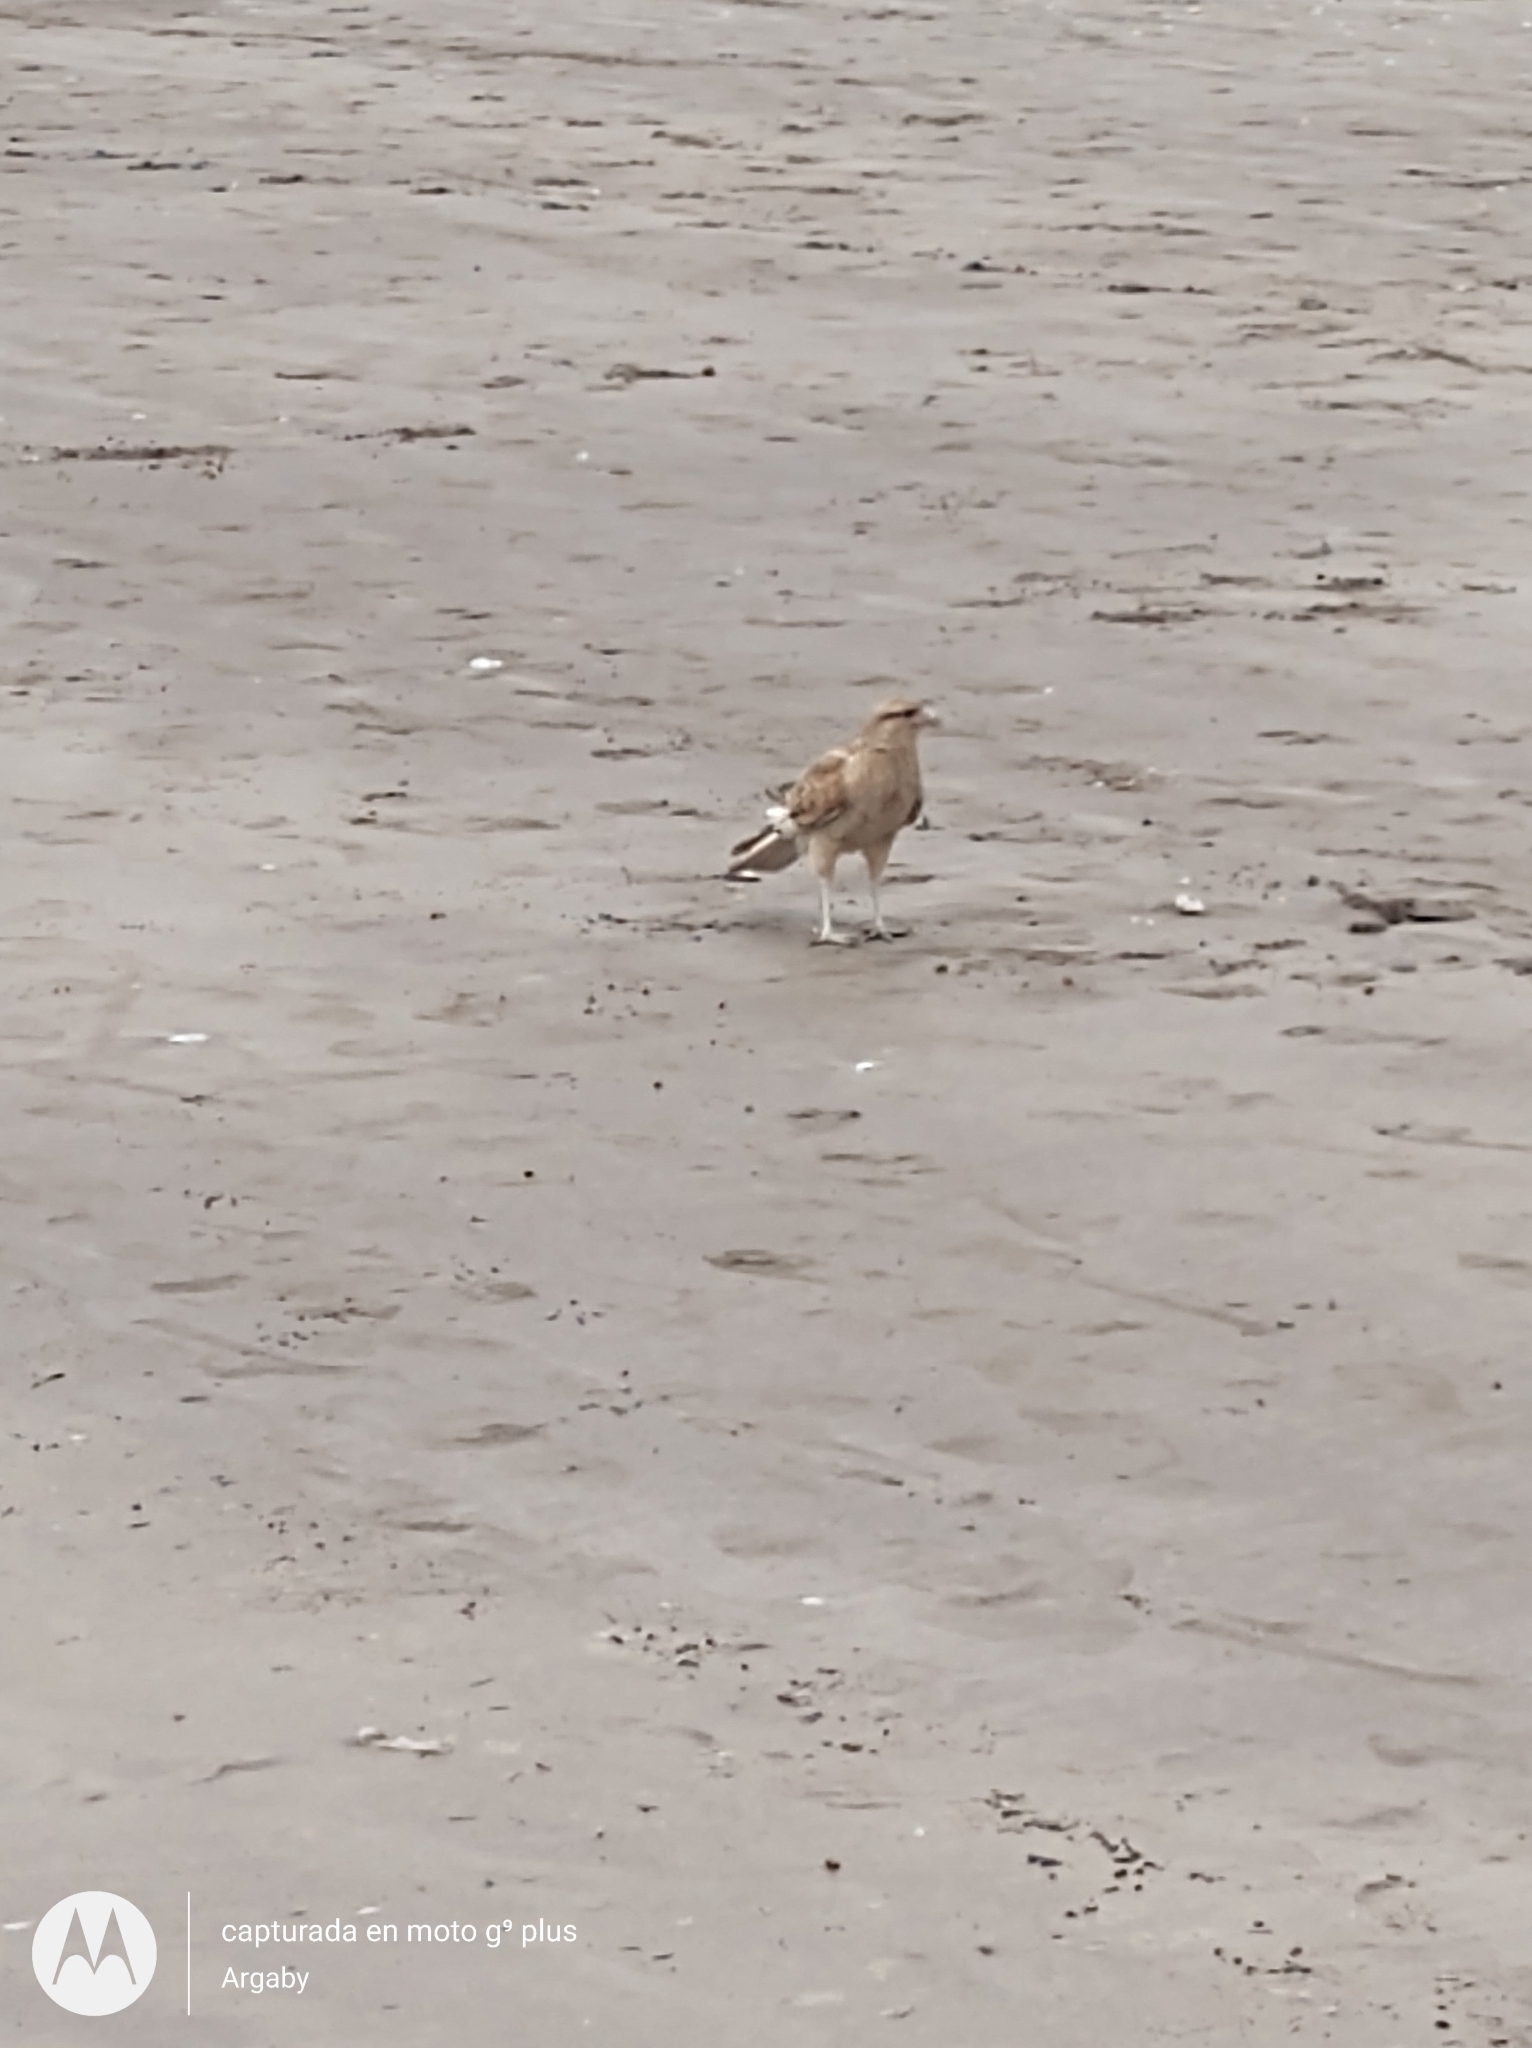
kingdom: Animalia
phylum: Chordata
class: Aves
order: Falconiformes
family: Falconidae
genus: Daptrius
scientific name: Daptrius
